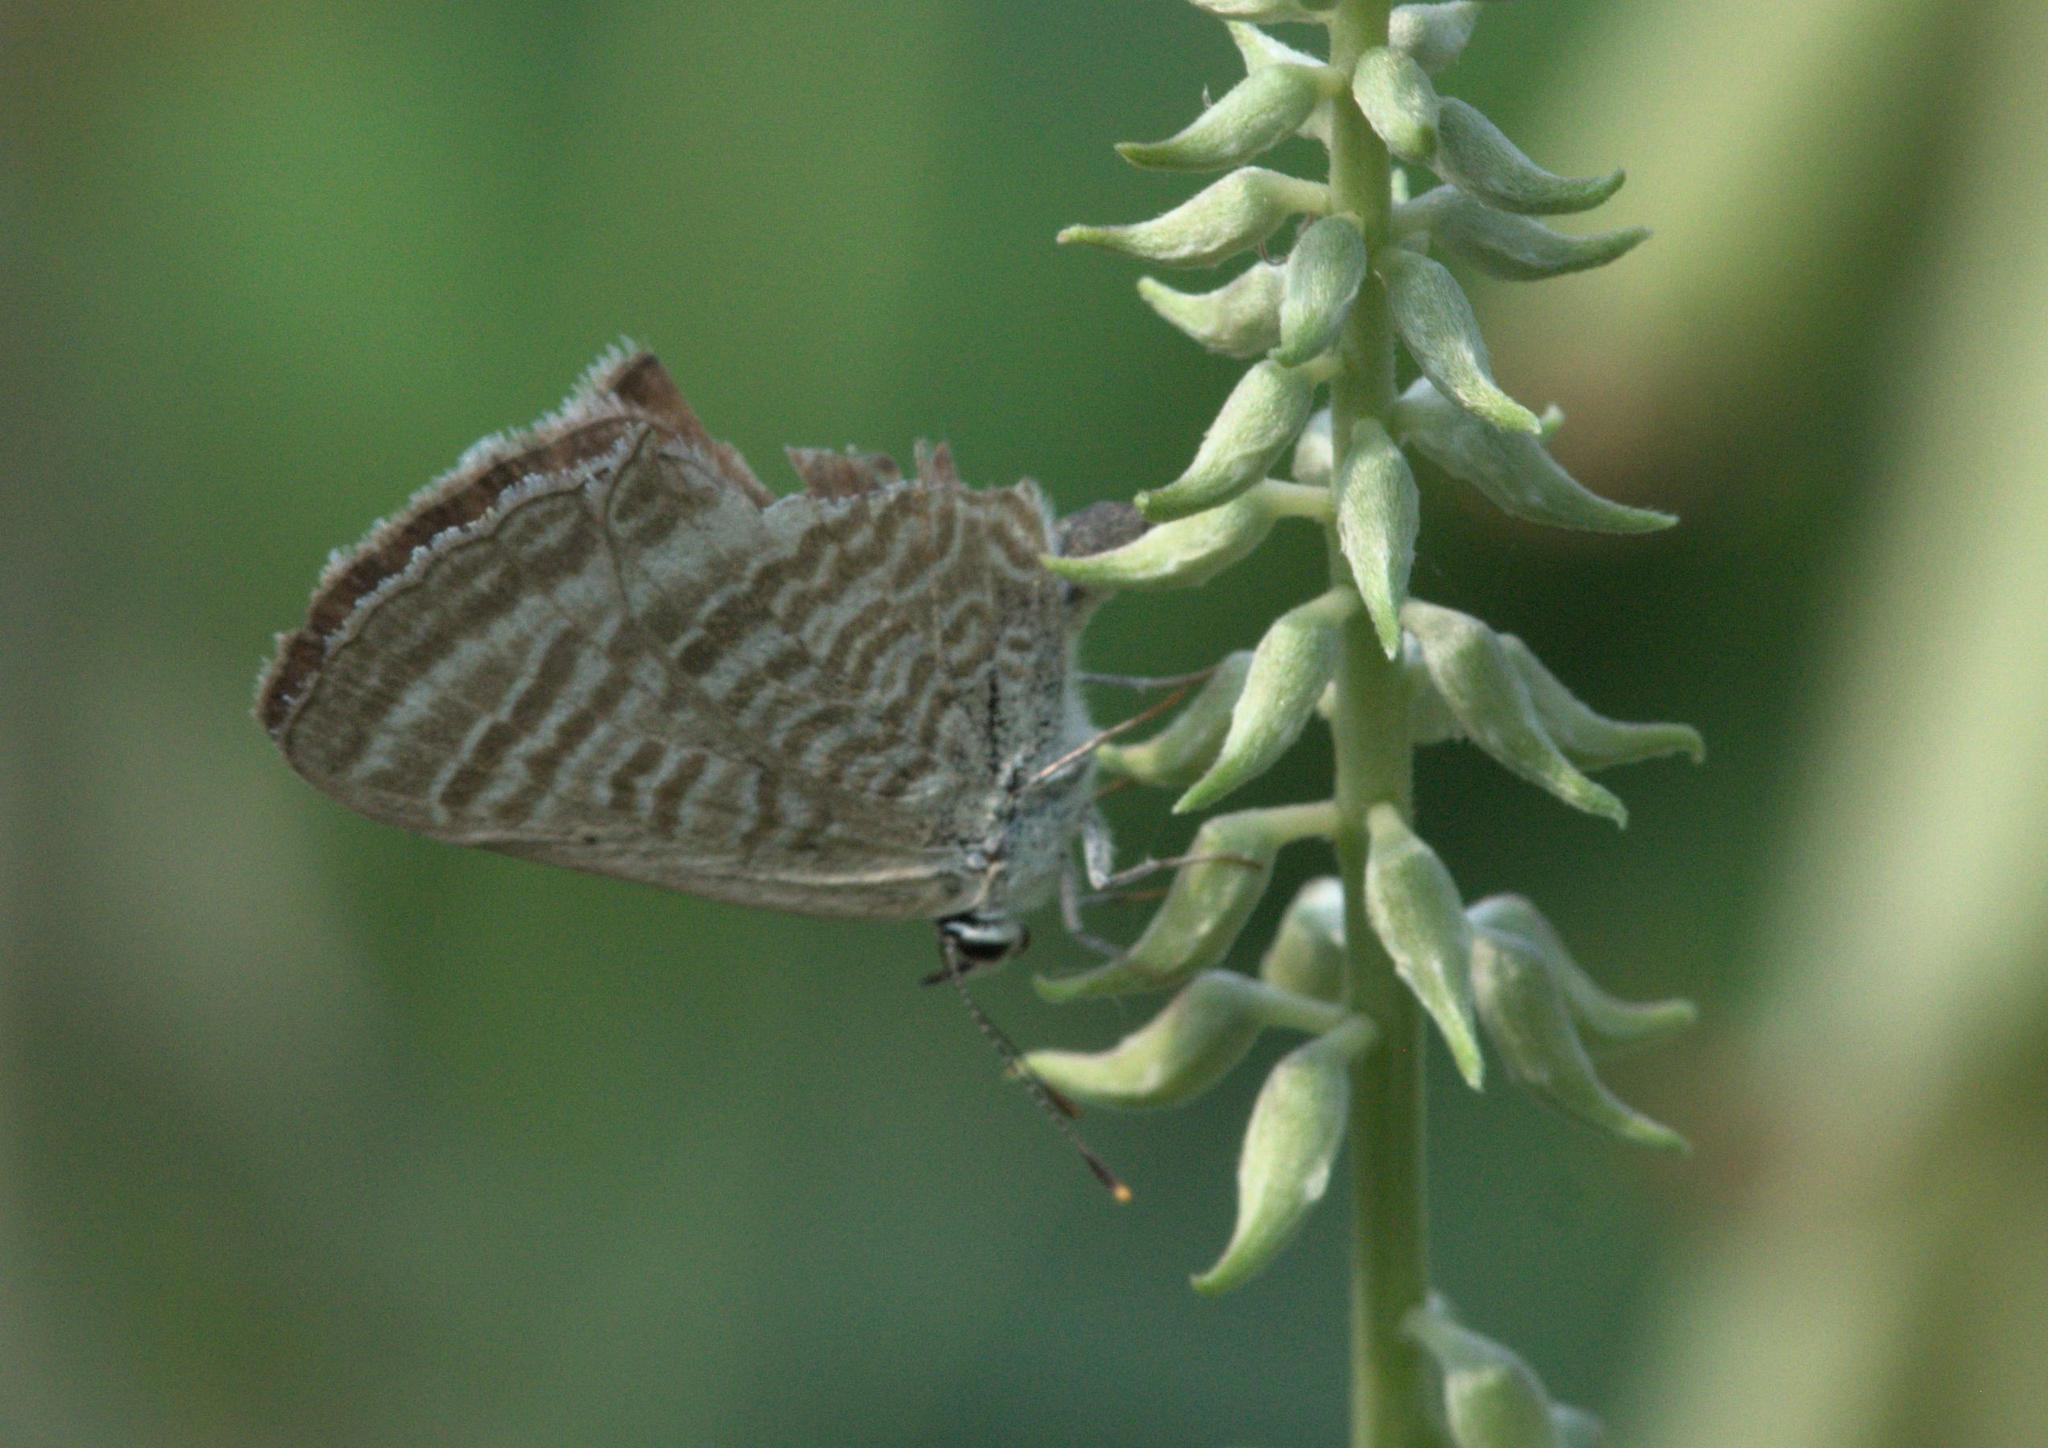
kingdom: Animalia
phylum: Arthropoda
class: Insecta
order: Lepidoptera
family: Lycaenidae
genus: Lampides
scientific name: Lampides boeticus
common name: Long-tailed blue
